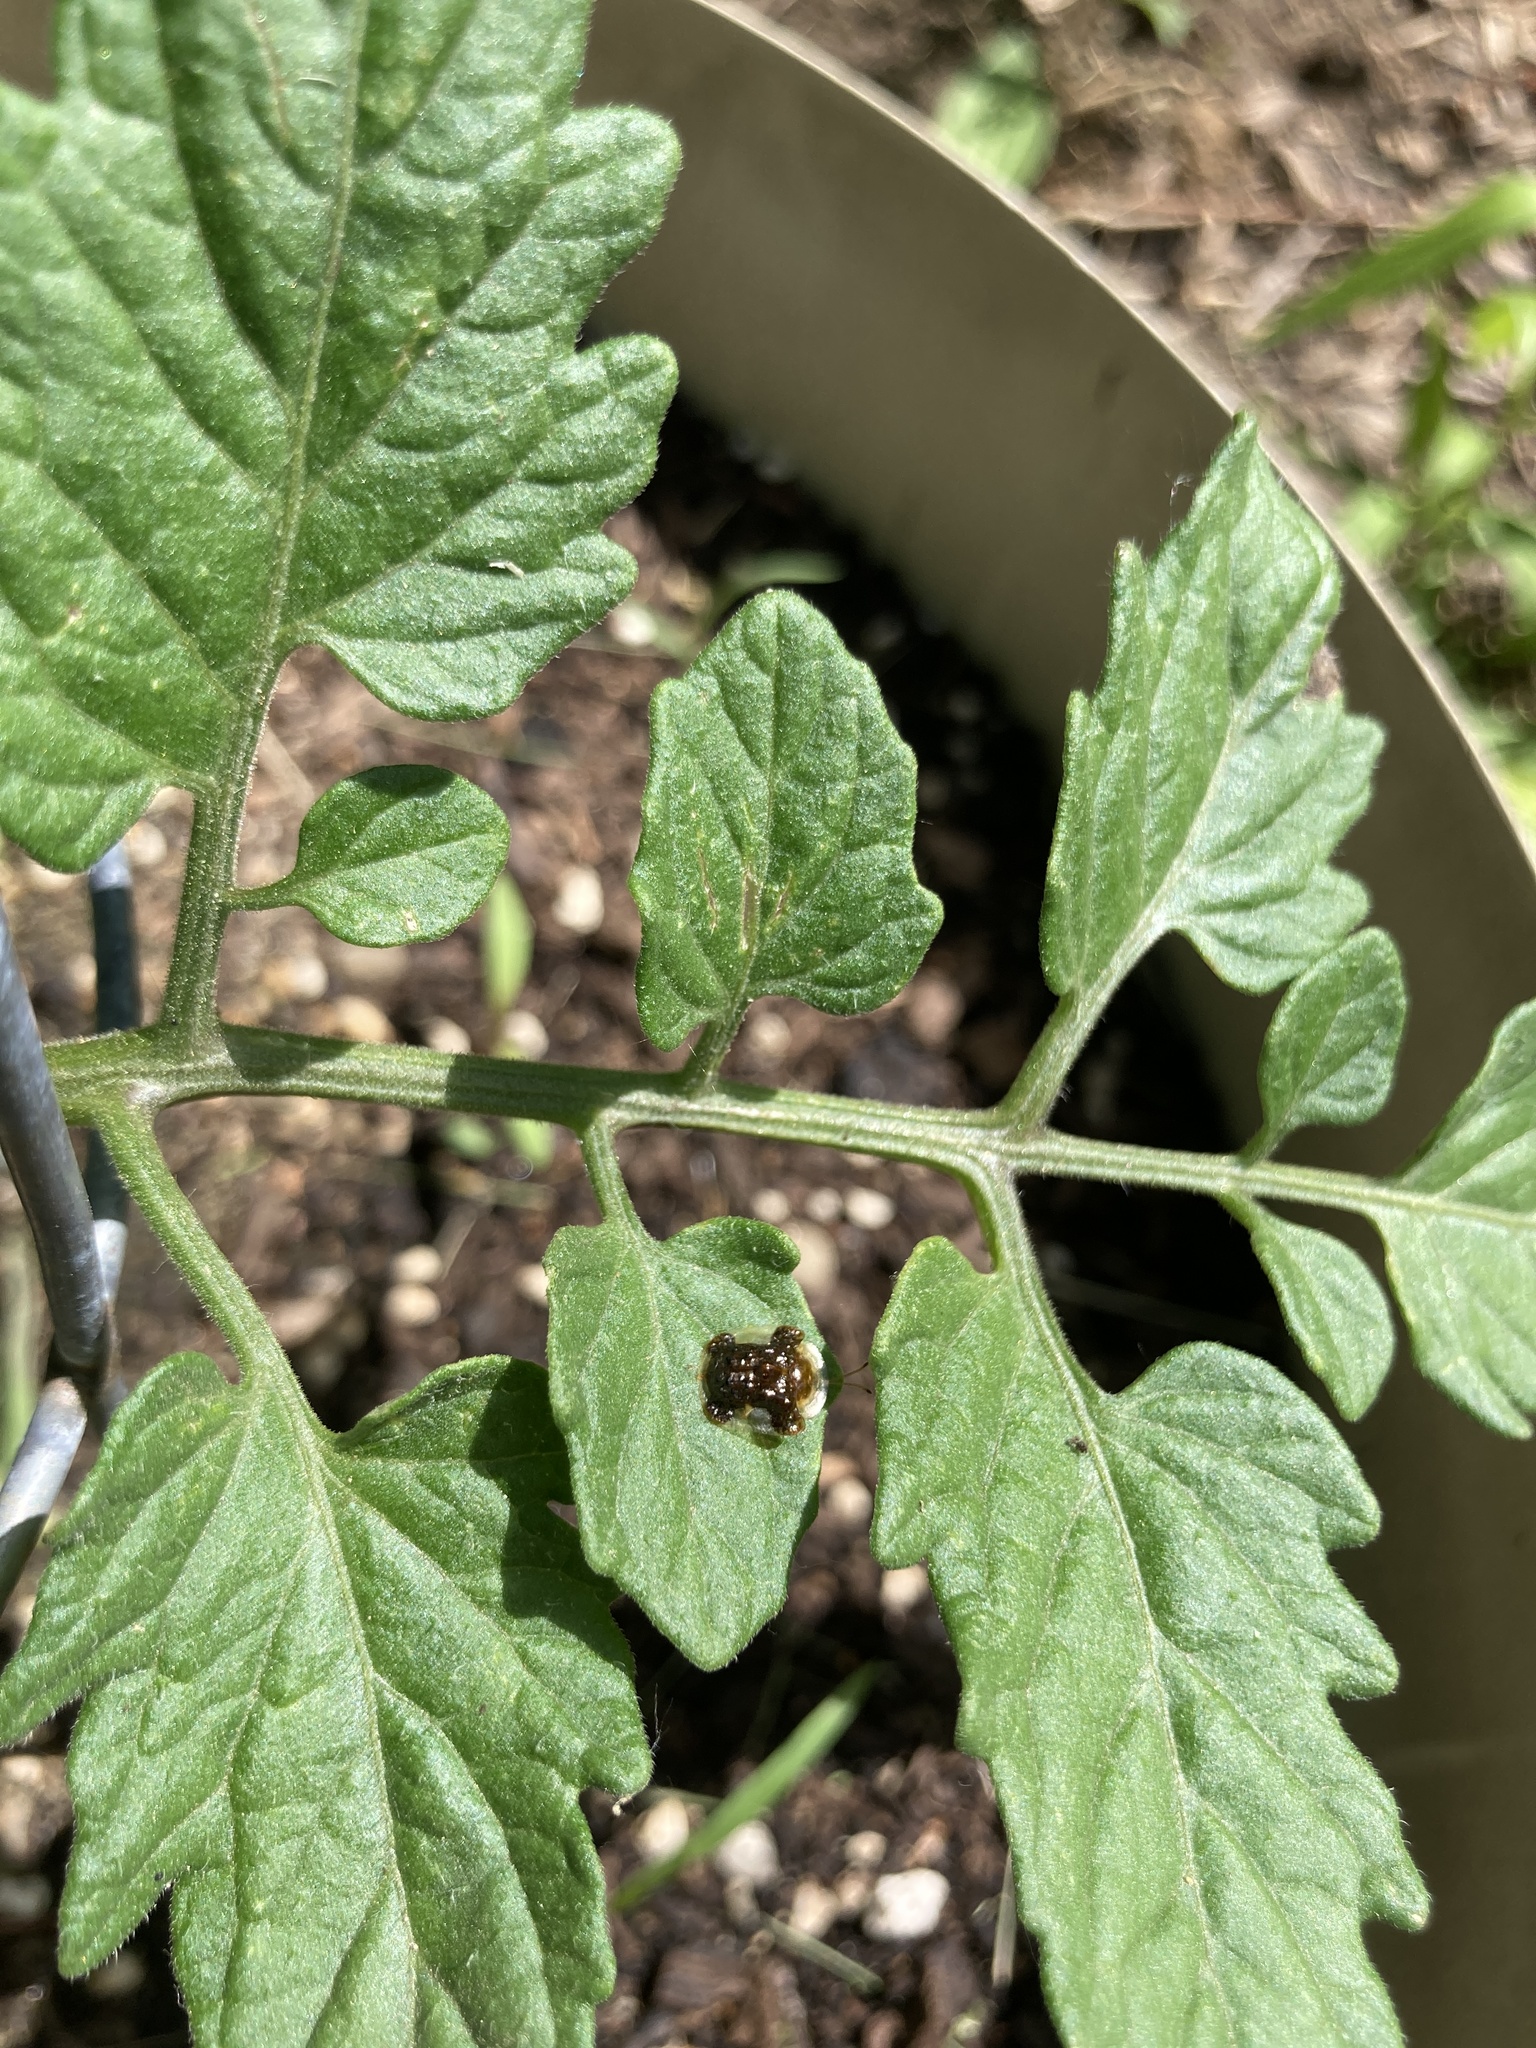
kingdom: Animalia
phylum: Arthropoda
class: Insecta
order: Coleoptera
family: Chrysomelidae
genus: Helocassis
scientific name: Helocassis clavata
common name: Clavate tortoise beetle
